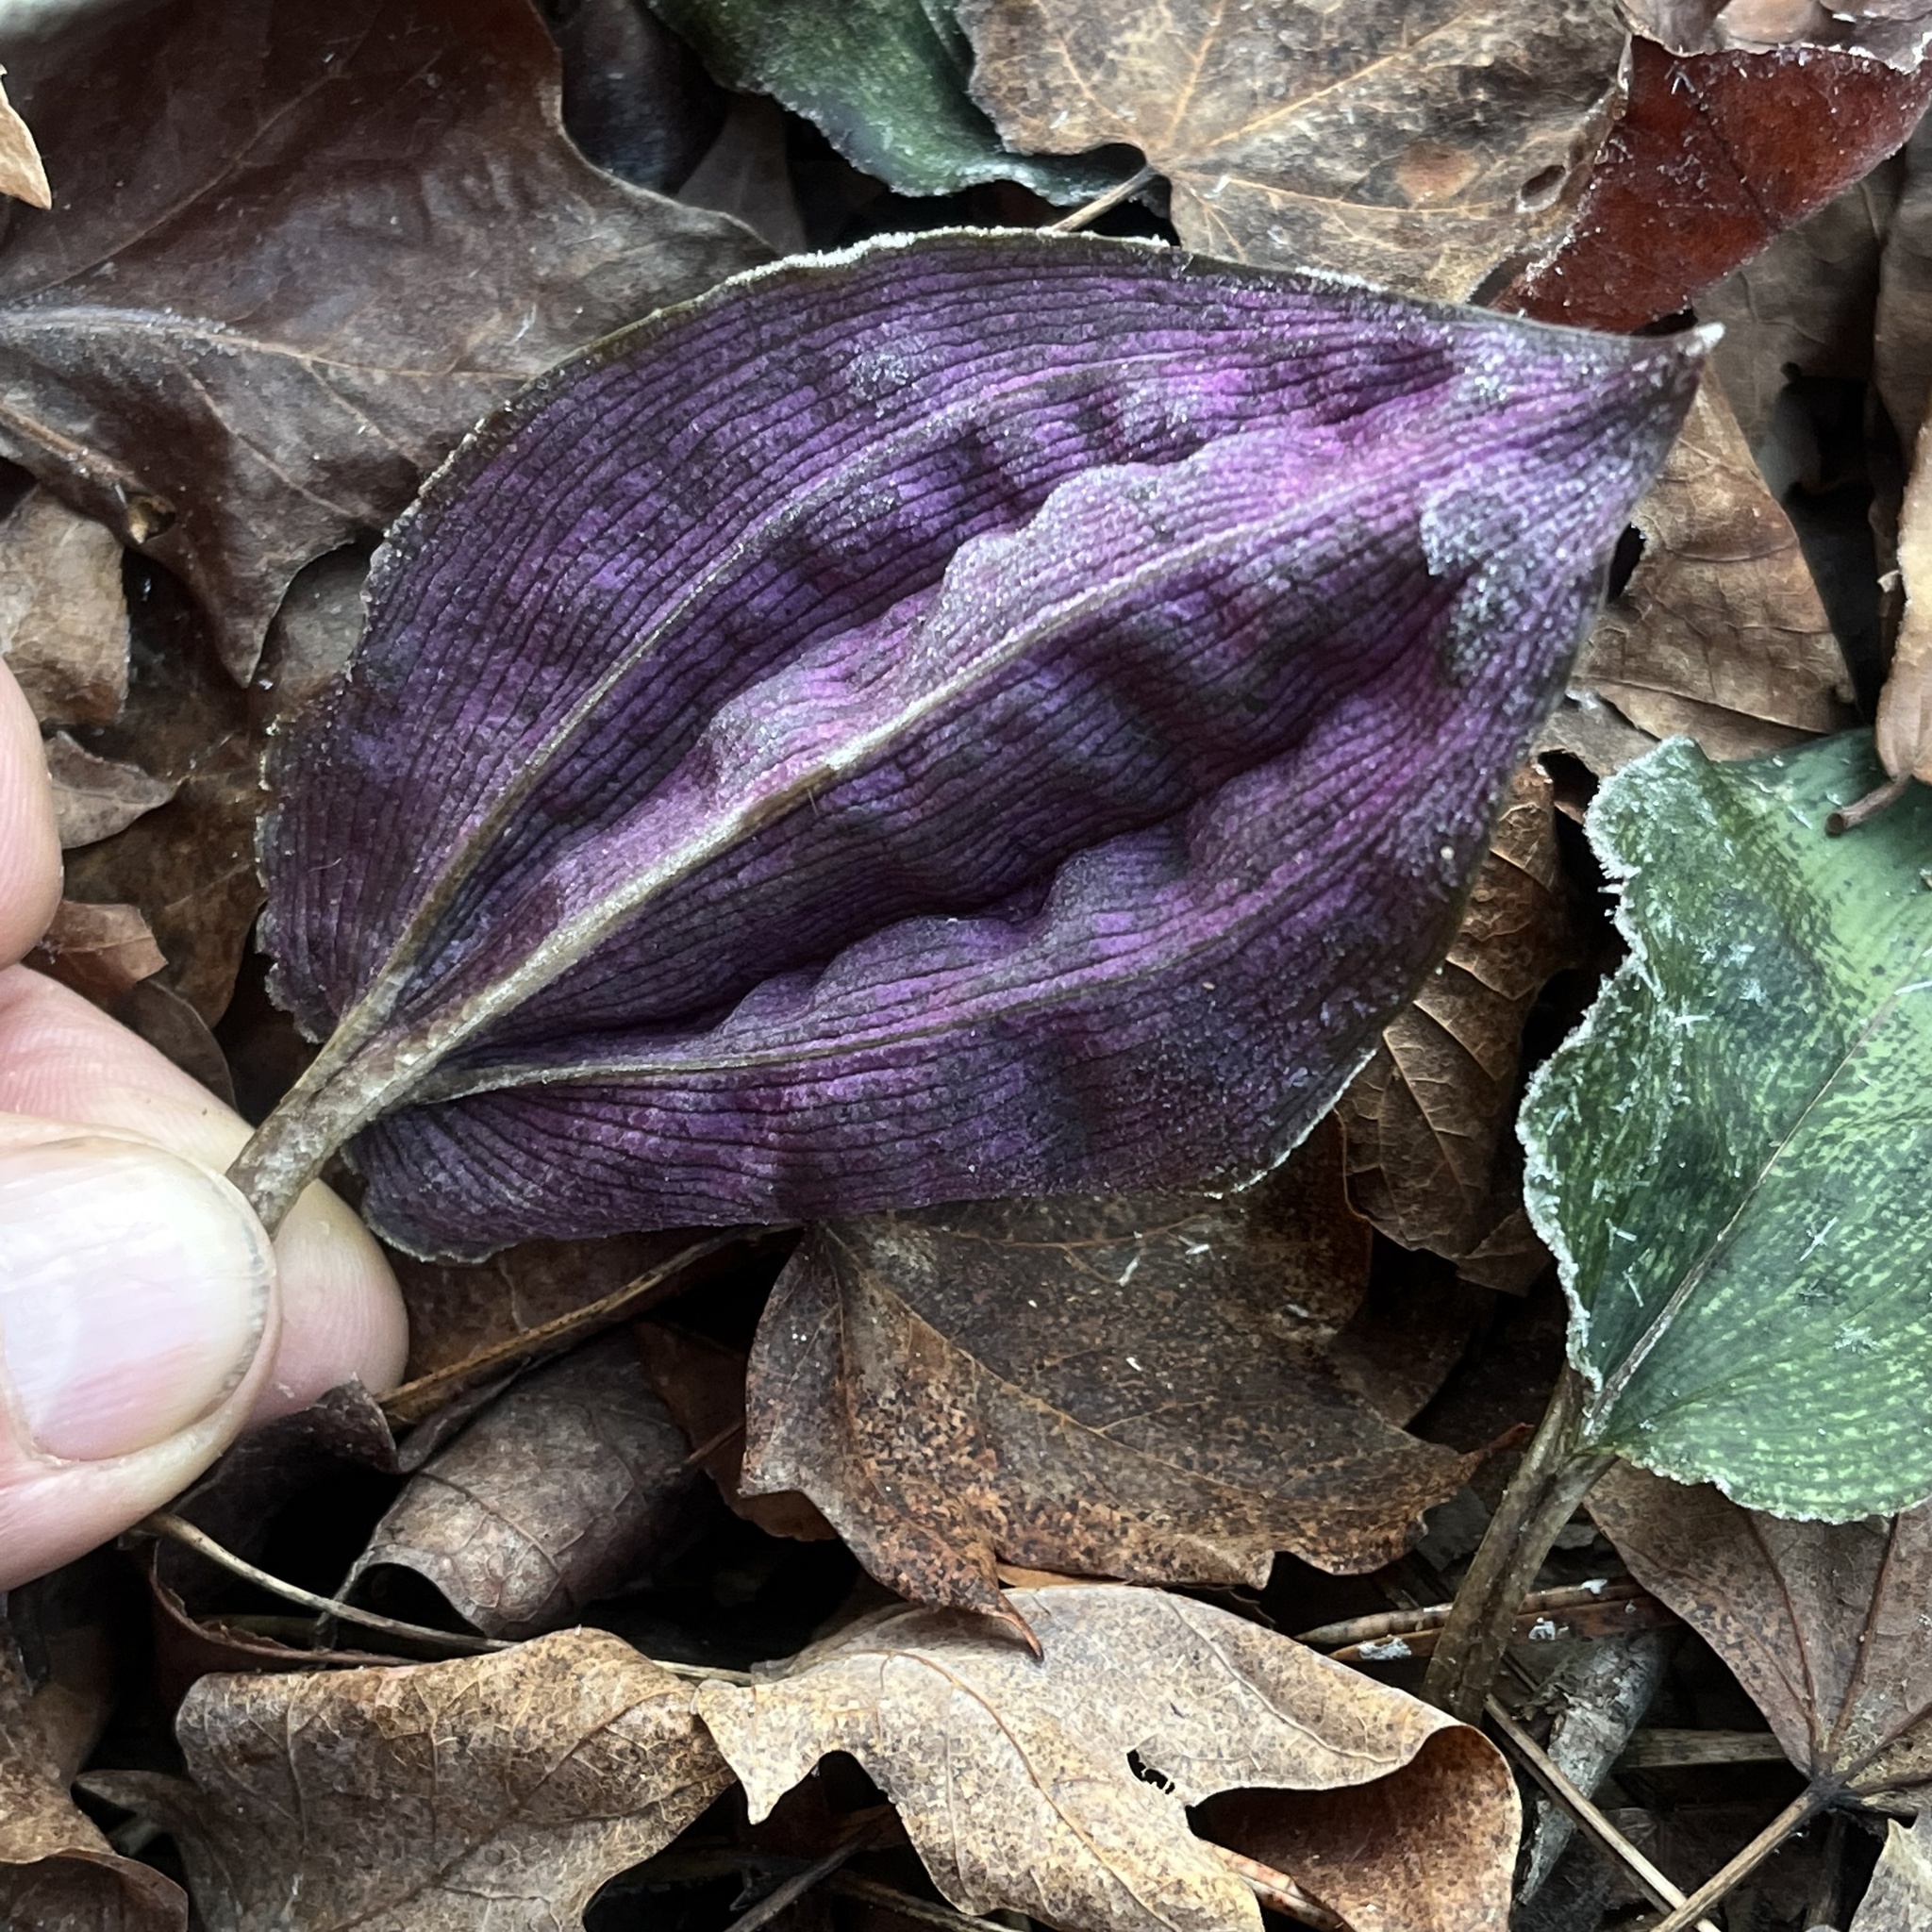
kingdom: Plantae
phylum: Tracheophyta
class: Liliopsida
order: Asparagales
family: Orchidaceae
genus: Tipularia
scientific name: Tipularia discolor
